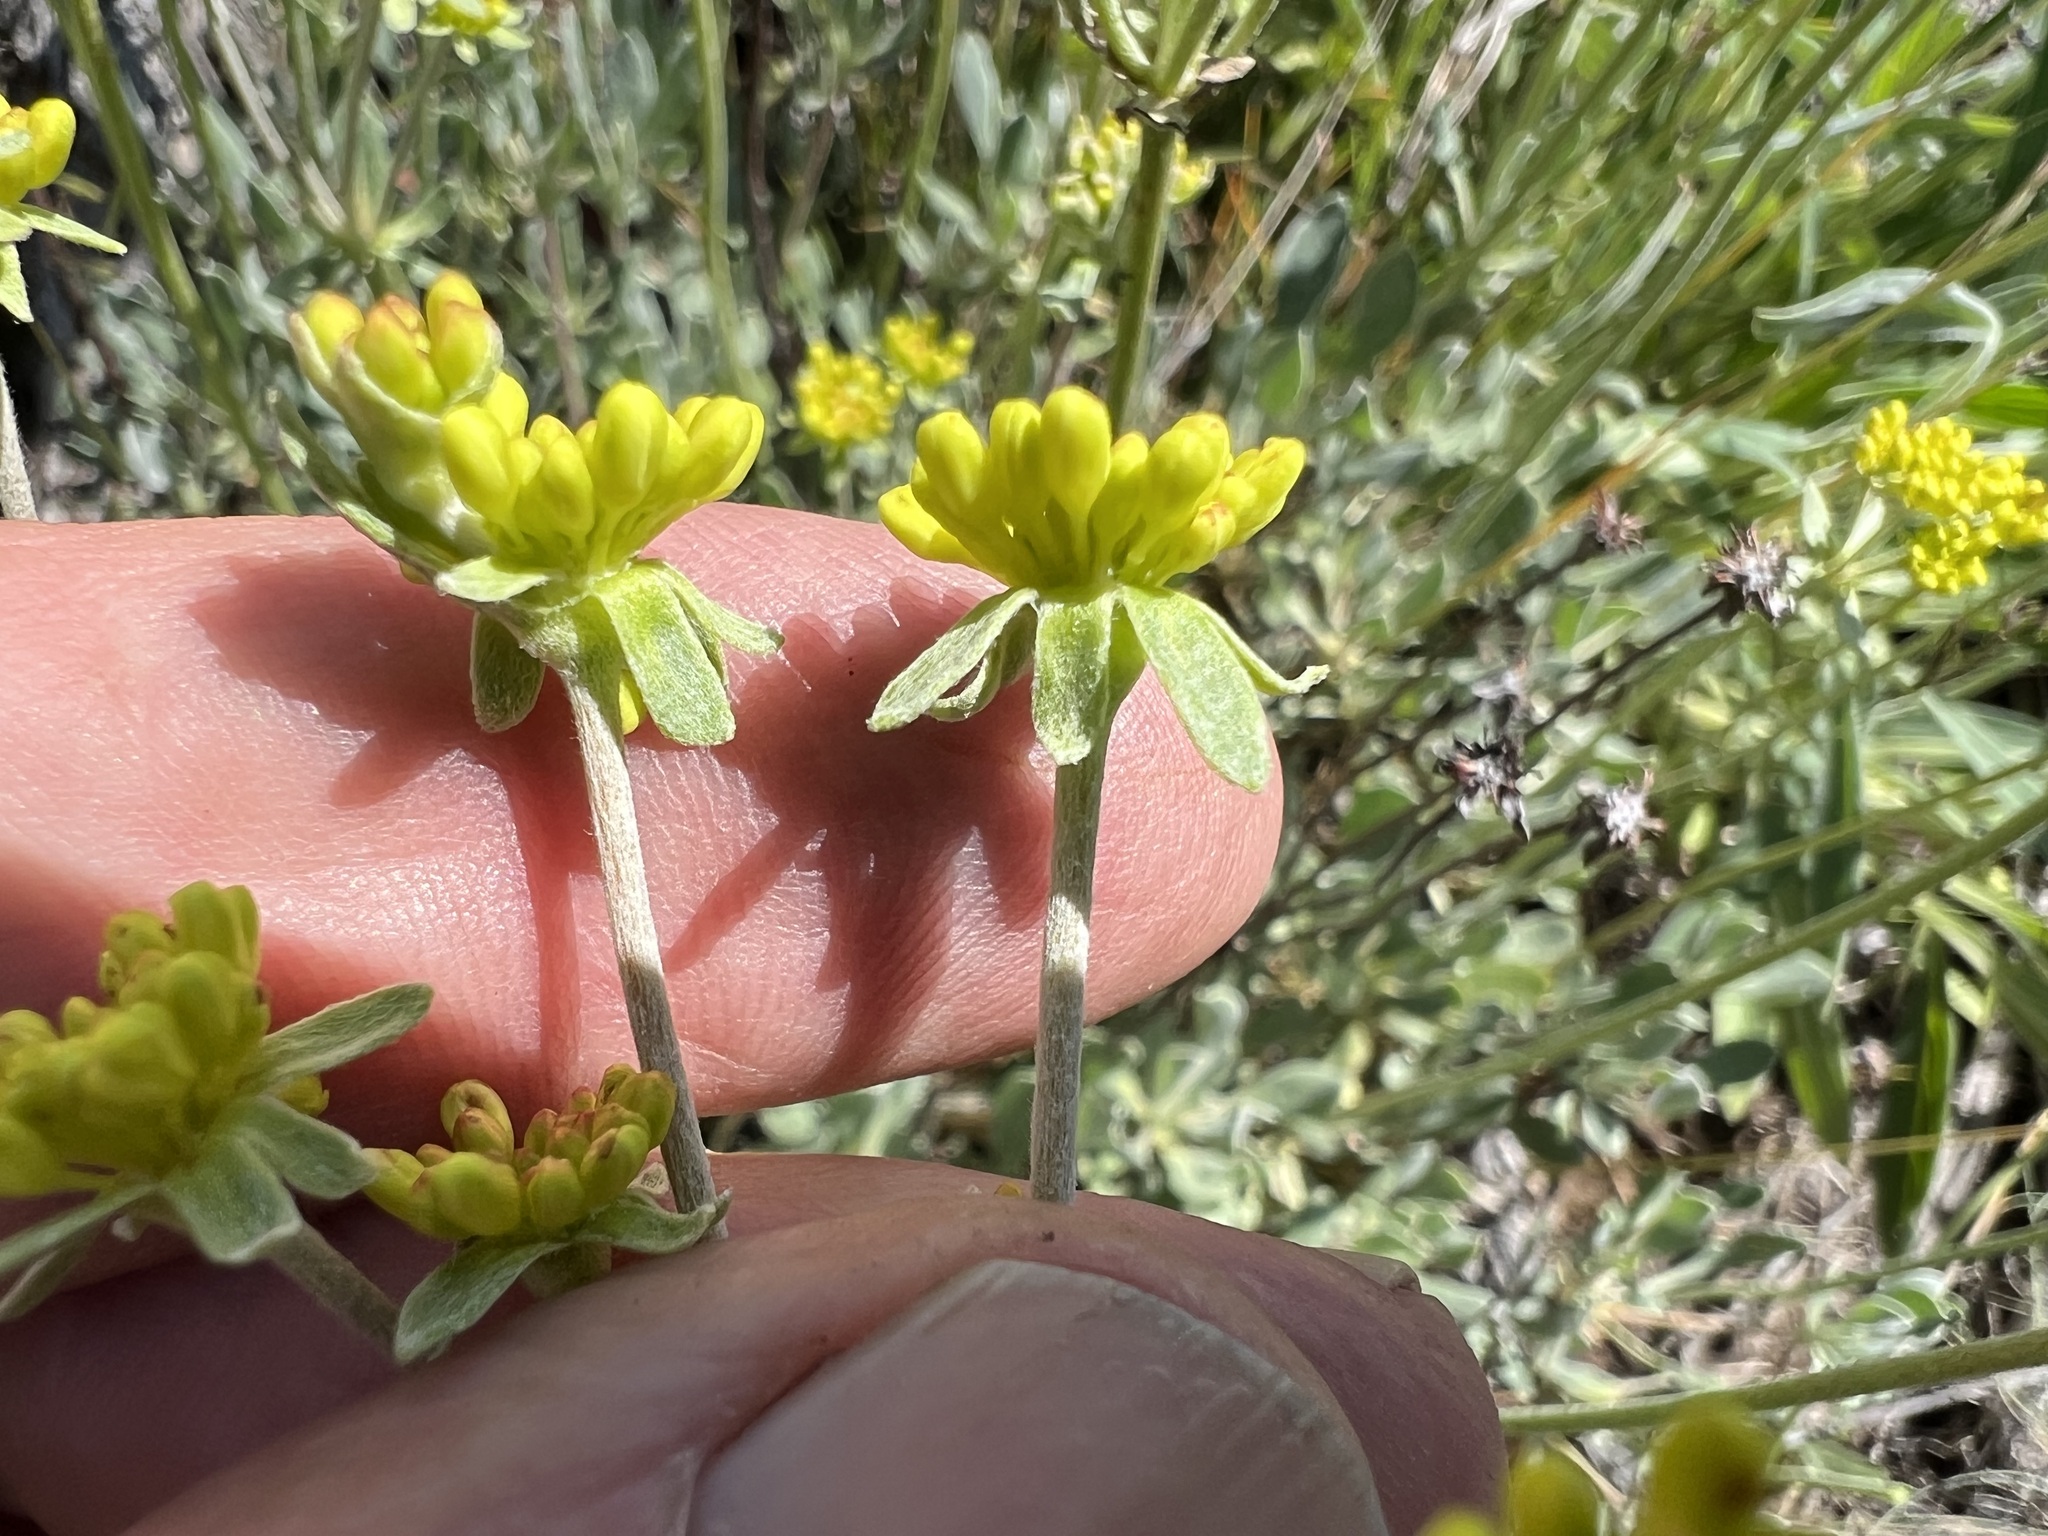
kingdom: Plantae
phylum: Tracheophyta
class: Magnoliopsida
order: Caryophyllales
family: Polygonaceae
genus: Eriogonum
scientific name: Eriogonum umbellatum
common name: Sulfur-buckwheat
